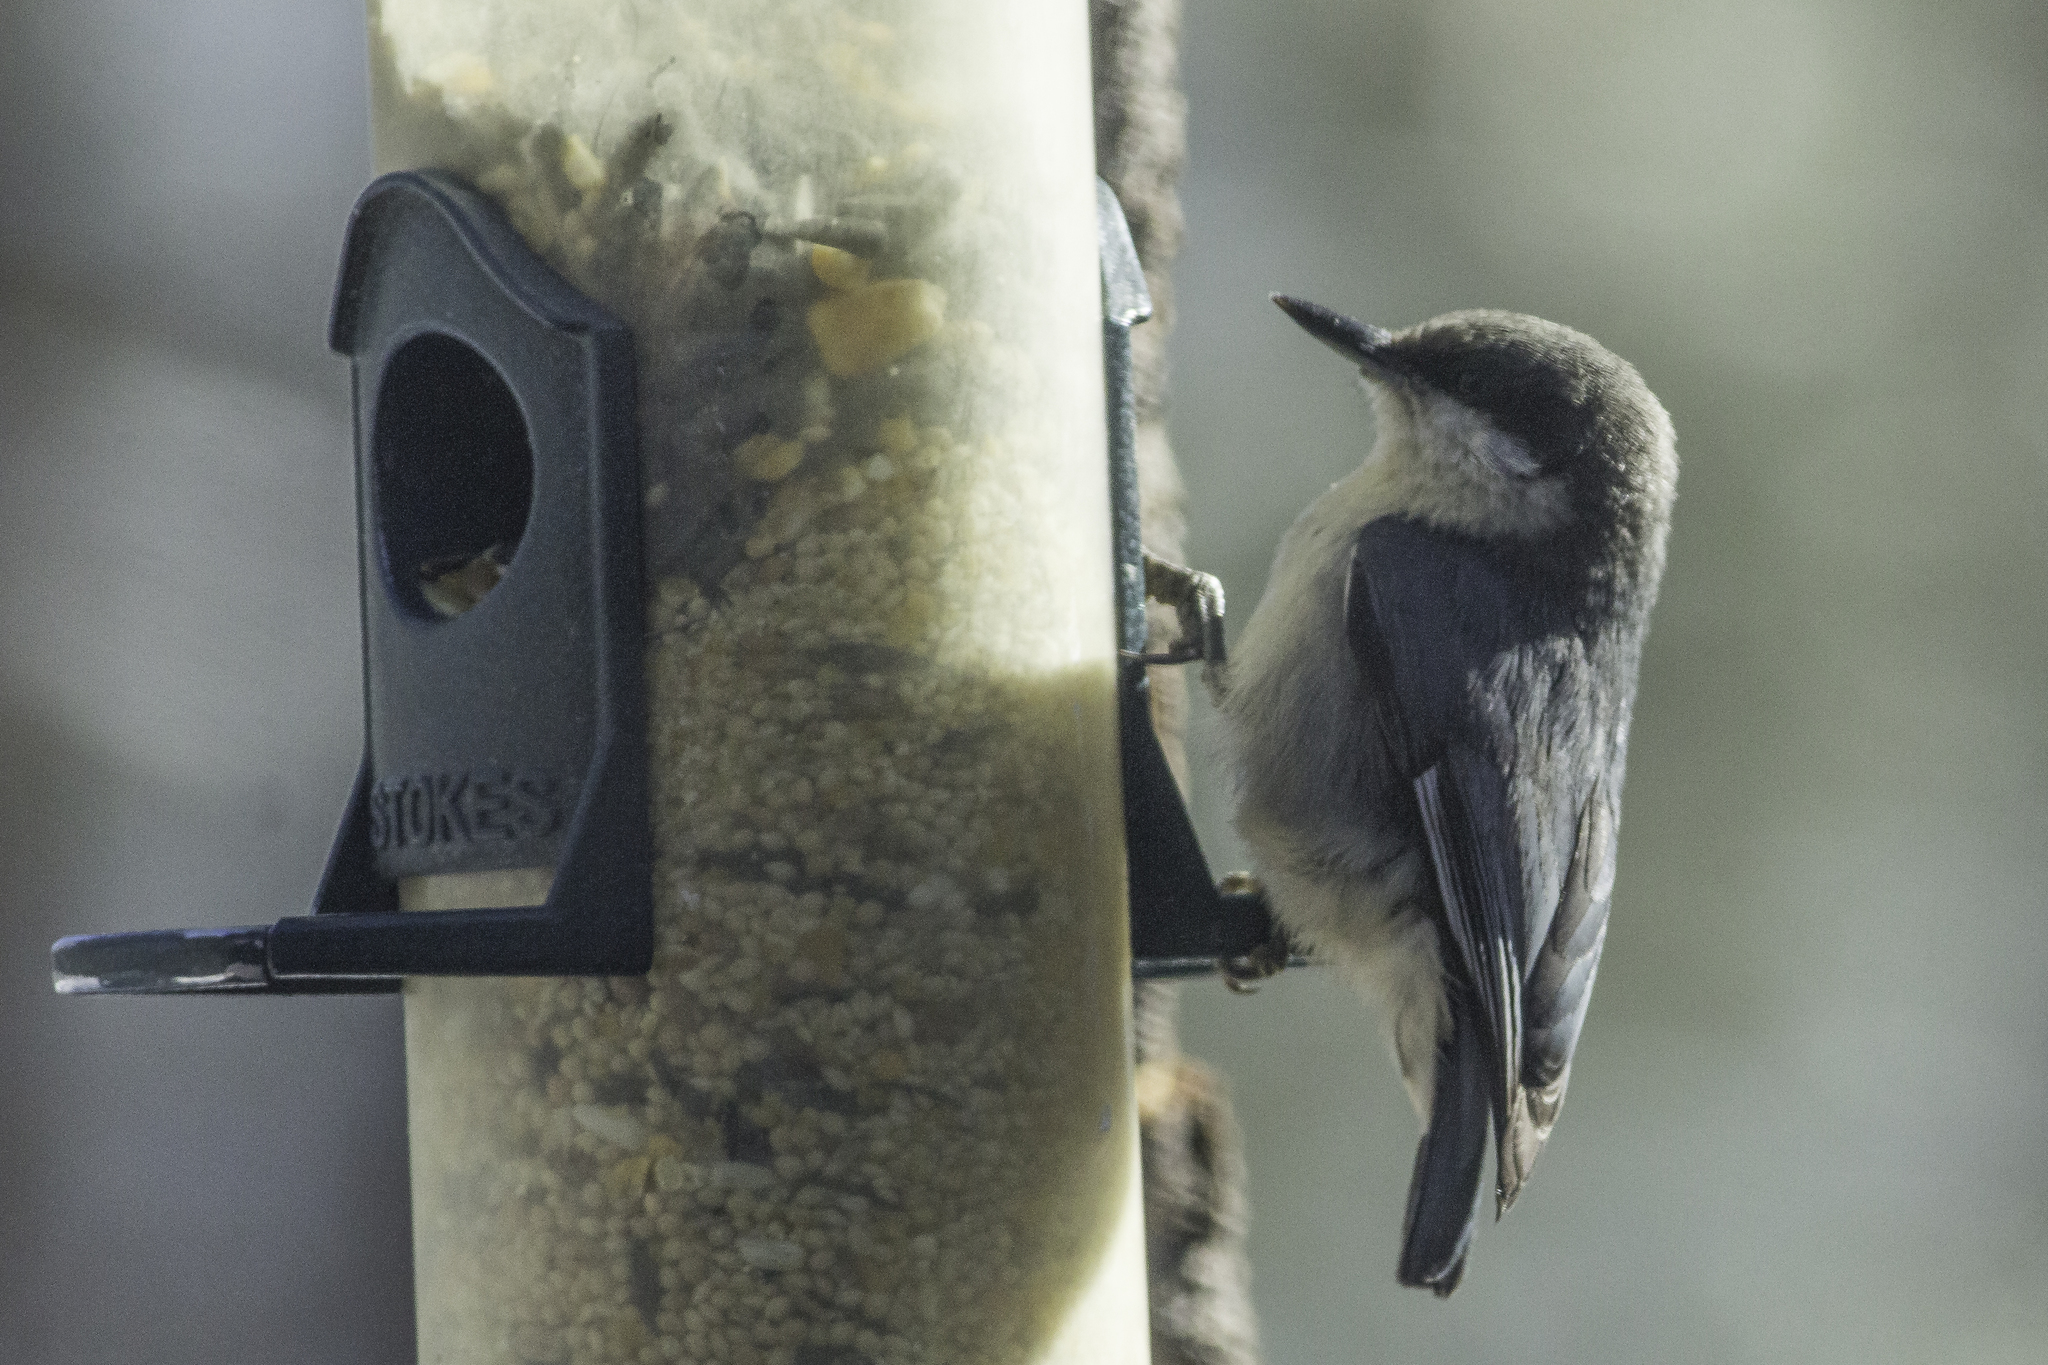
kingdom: Animalia
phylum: Chordata
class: Aves
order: Passeriformes
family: Sittidae
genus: Sitta
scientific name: Sitta pygmaea
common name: Pygmy nuthatch
